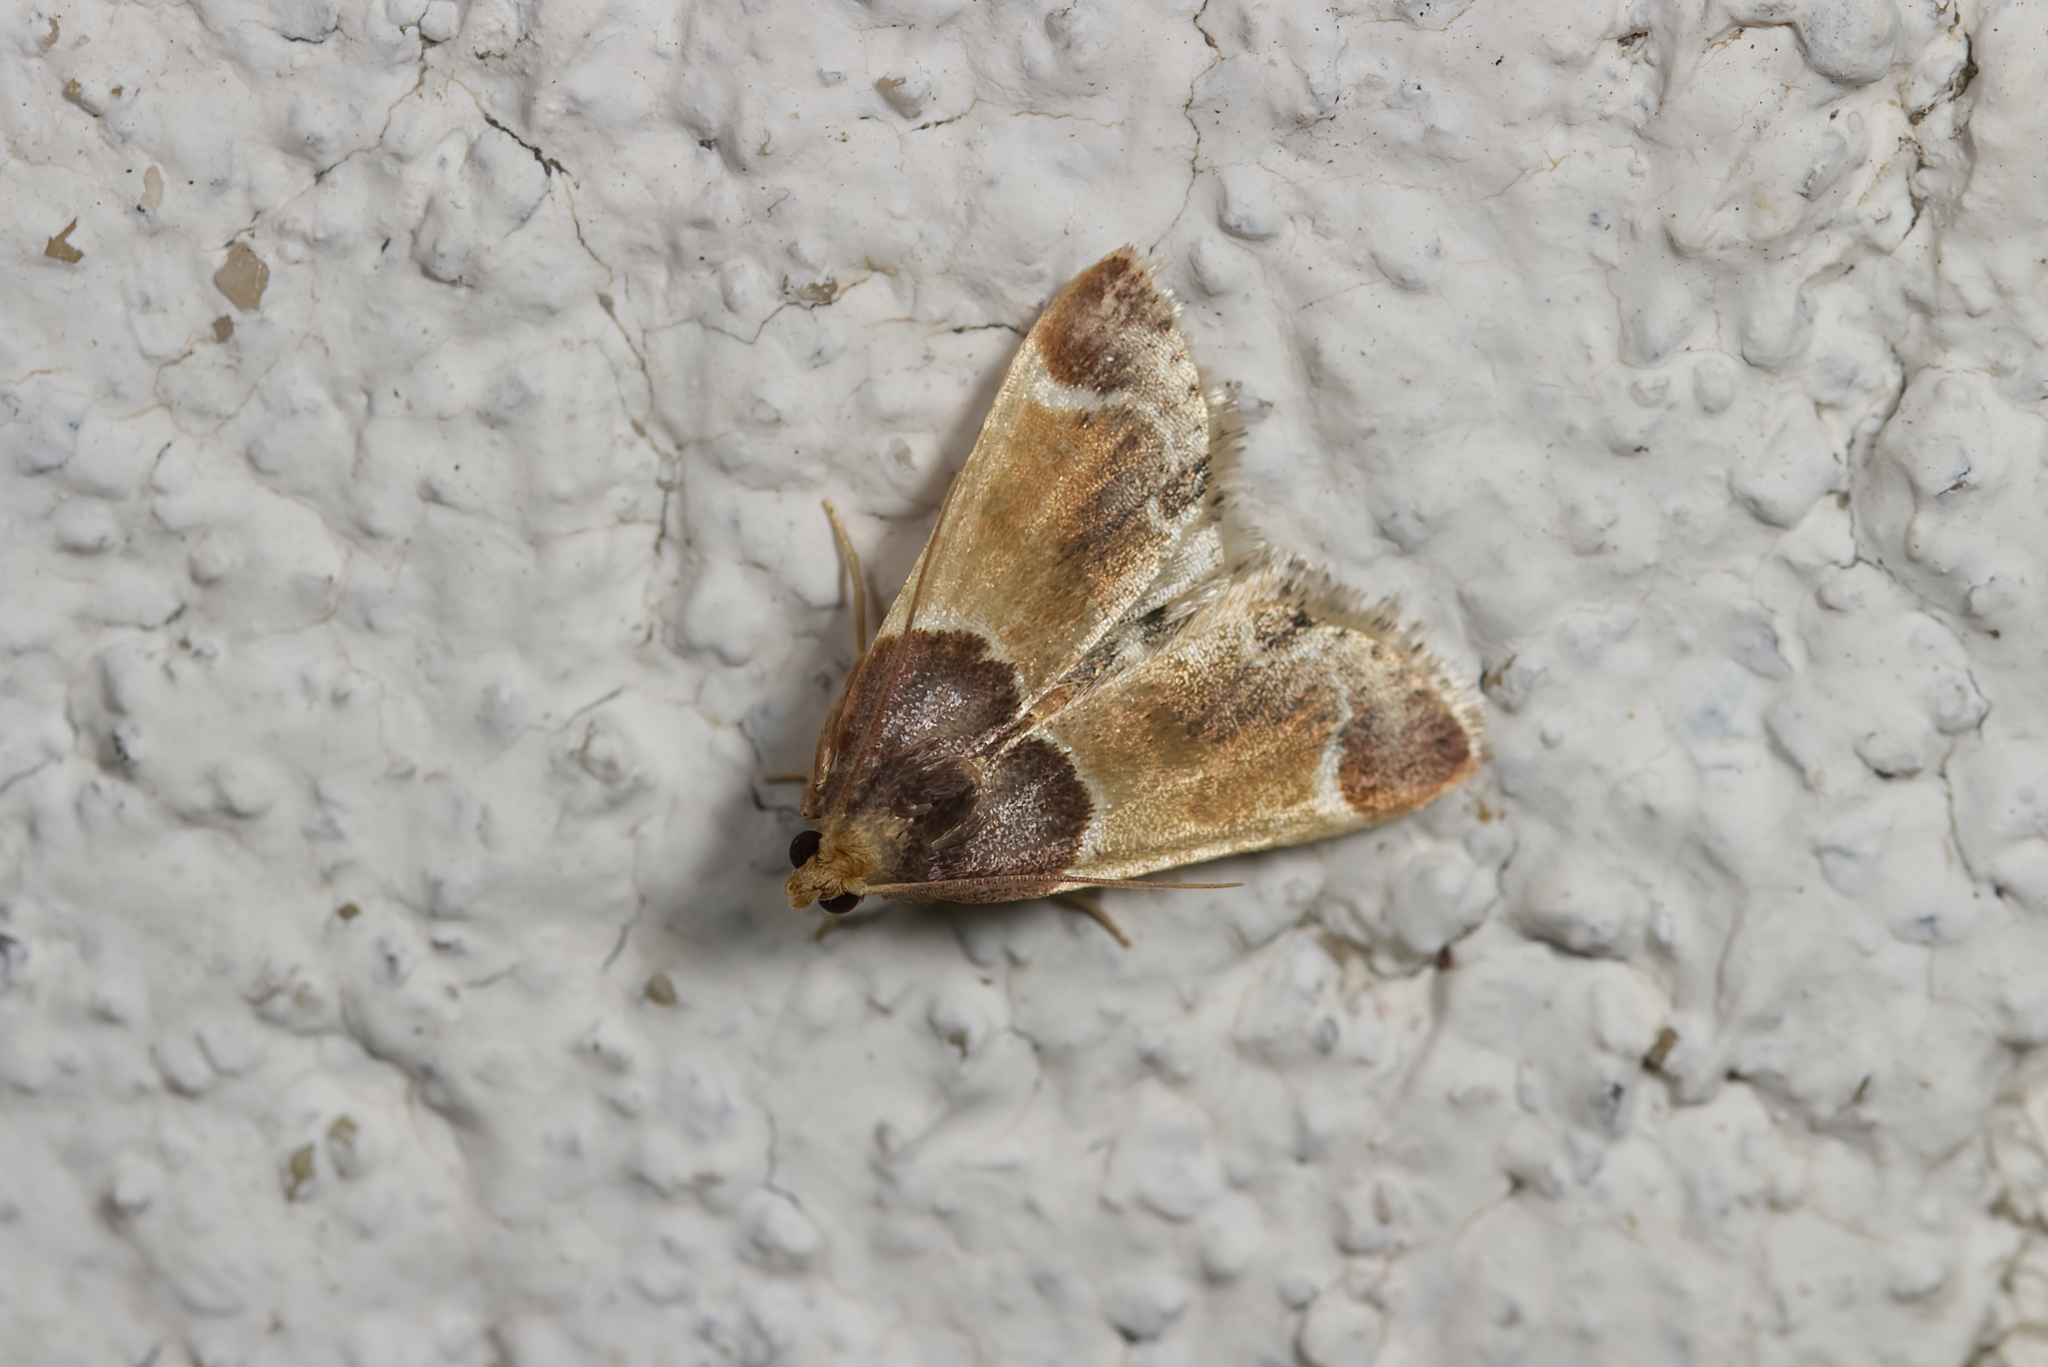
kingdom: Animalia
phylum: Arthropoda
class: Insecta
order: Lepidoptera
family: Pyralidae
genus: Pyralis
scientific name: Pyralis farinalis
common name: Meal moth
